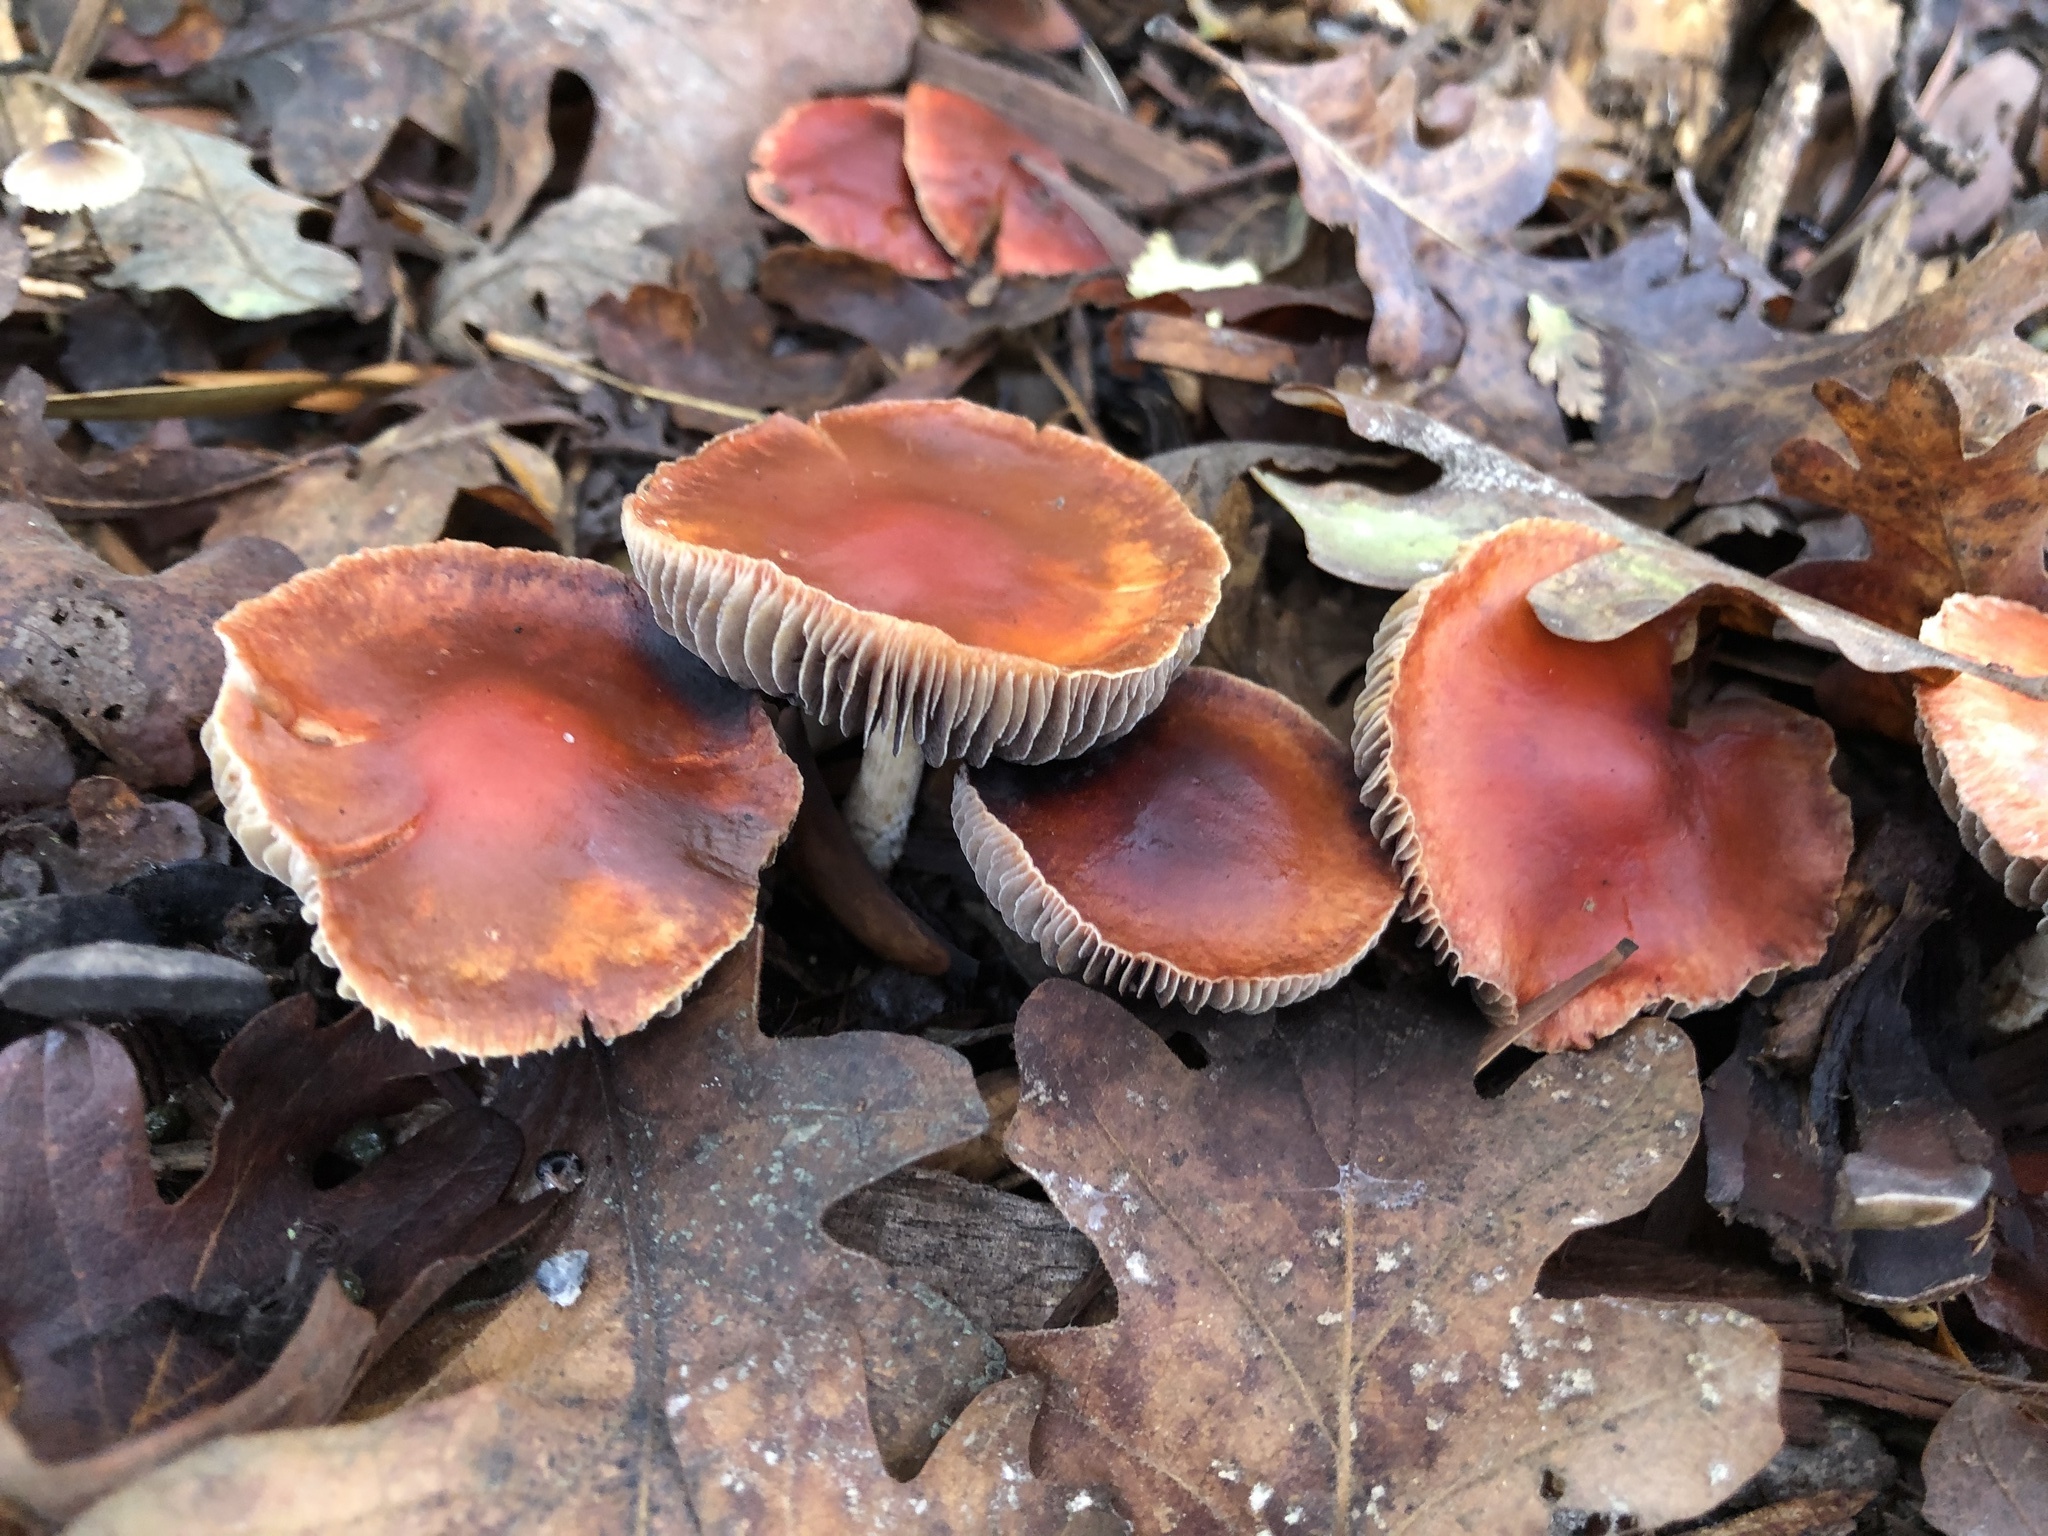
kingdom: Fungi
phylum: Basidiomycota
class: Agaricomycetes
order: Agaricales
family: Strophariaceae
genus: Leratiomyces
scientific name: Leratiomyces ceres
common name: Redlead roundhead
